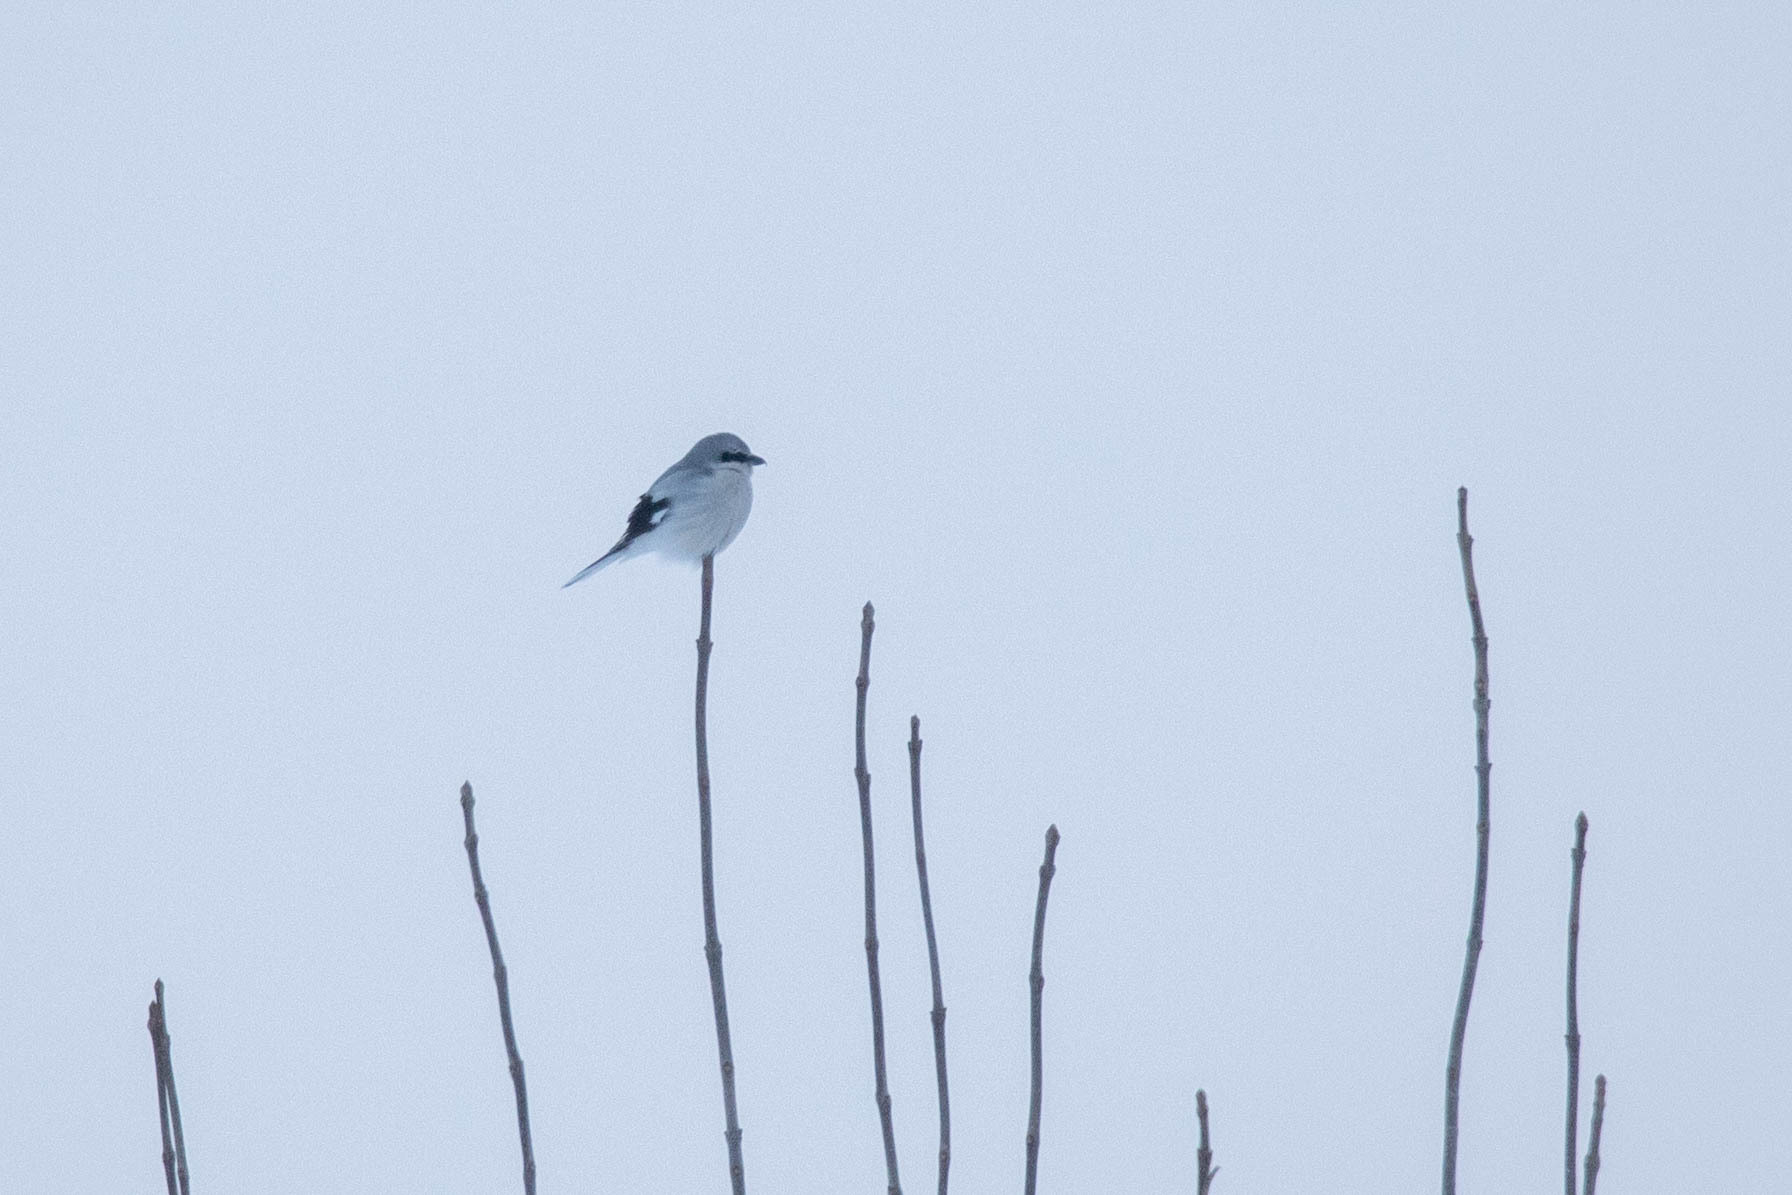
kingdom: Animalia
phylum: Chordata
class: Aves
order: Passeriformes
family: Laniidae
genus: Lanius
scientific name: Lanius excubitor
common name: Great grey shrike
